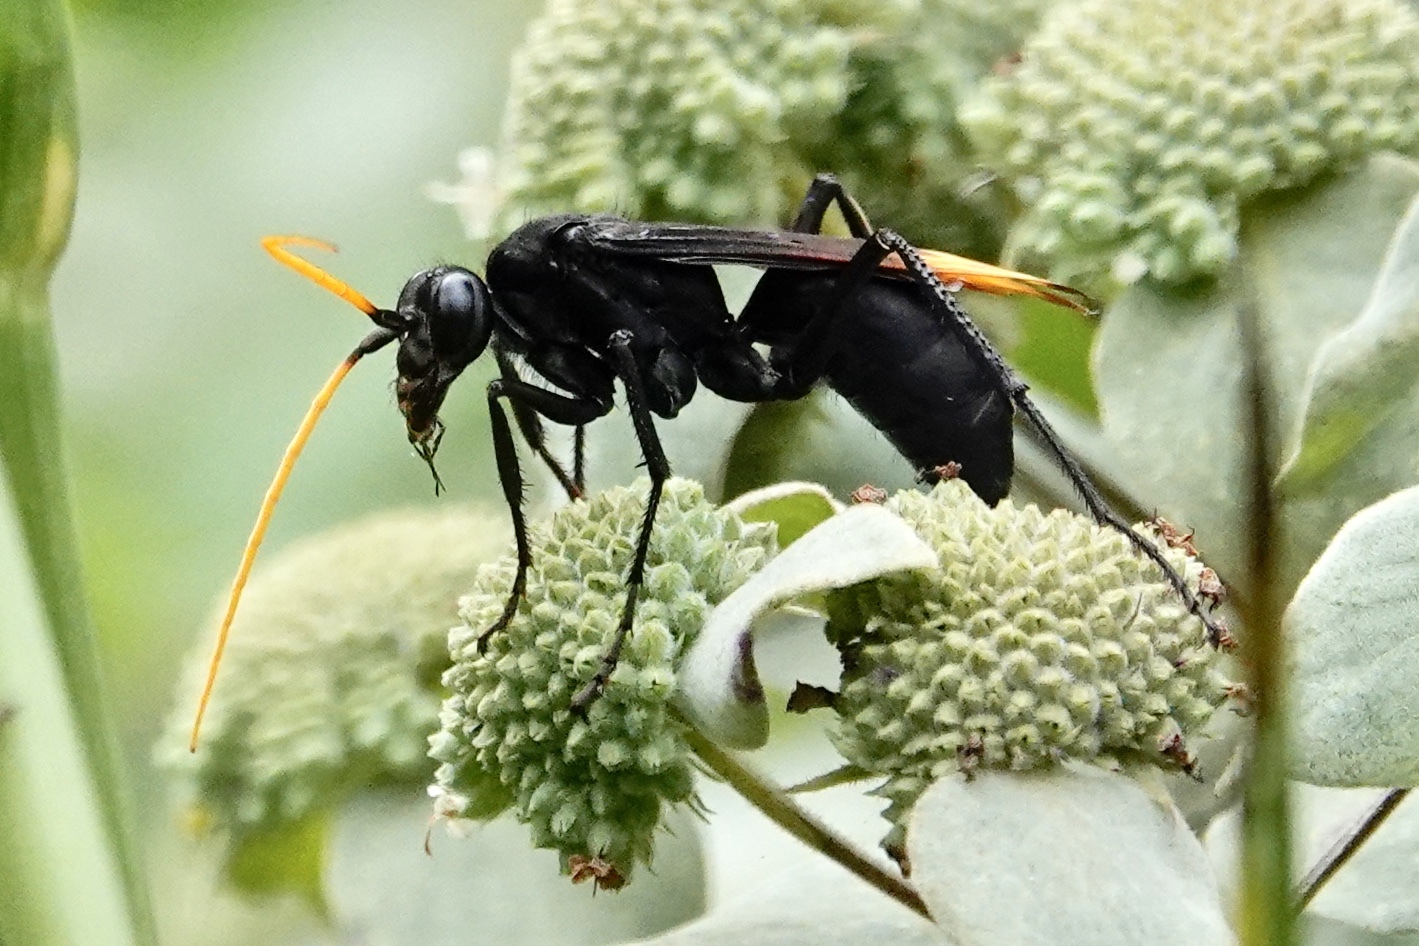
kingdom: Animalia
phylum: Arthropoda
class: Insecta
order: Hymenoptera
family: Pompilidae
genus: Entypus
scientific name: Entypus unifasciatus
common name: Eastern tawny-horned spider wasp
